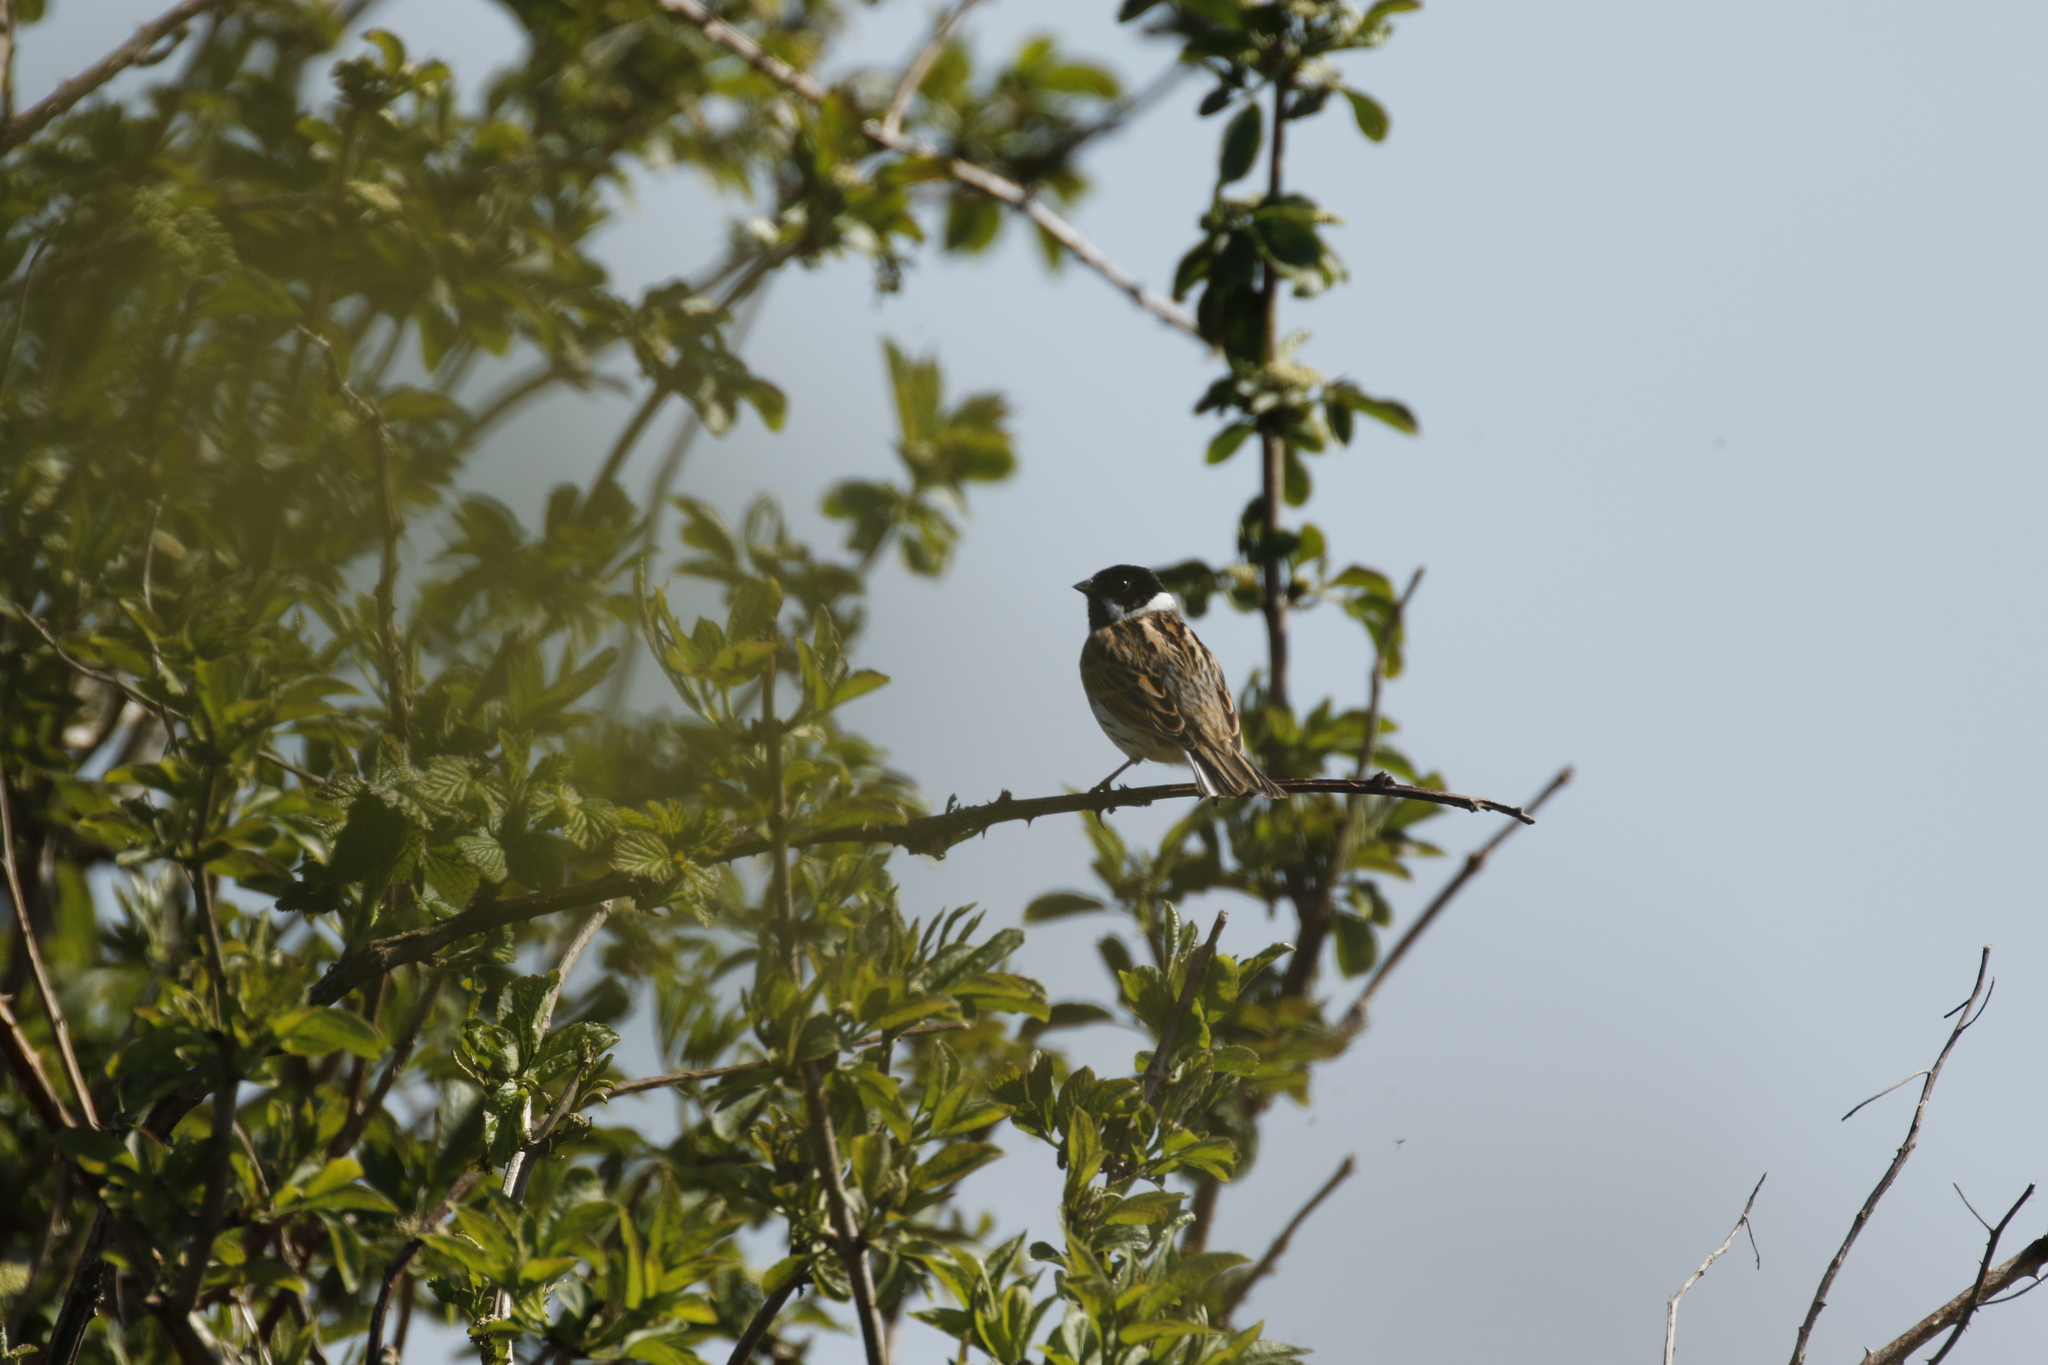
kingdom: Animalia
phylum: Chordata
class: Aves
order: Passeriformes
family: Emberizidae
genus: Emberiza
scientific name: Emberiza schoeniclus
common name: Reed bunting
